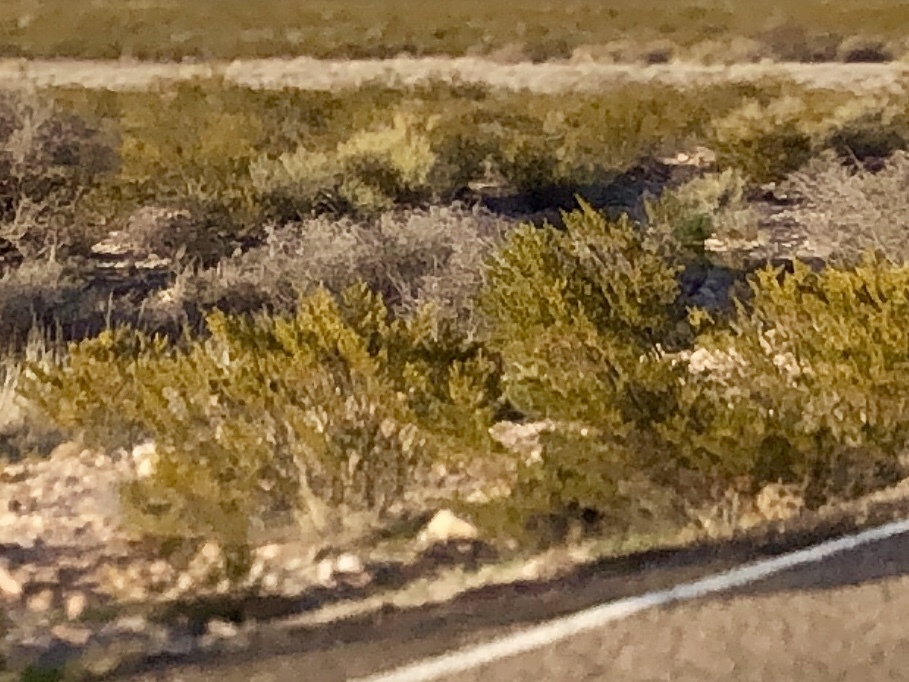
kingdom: Plantae
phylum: Tracheophyta
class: Magnoliopsida
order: Zygophyllales
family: Zygophyllaceae
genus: Larrea
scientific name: Larrea tridentata
